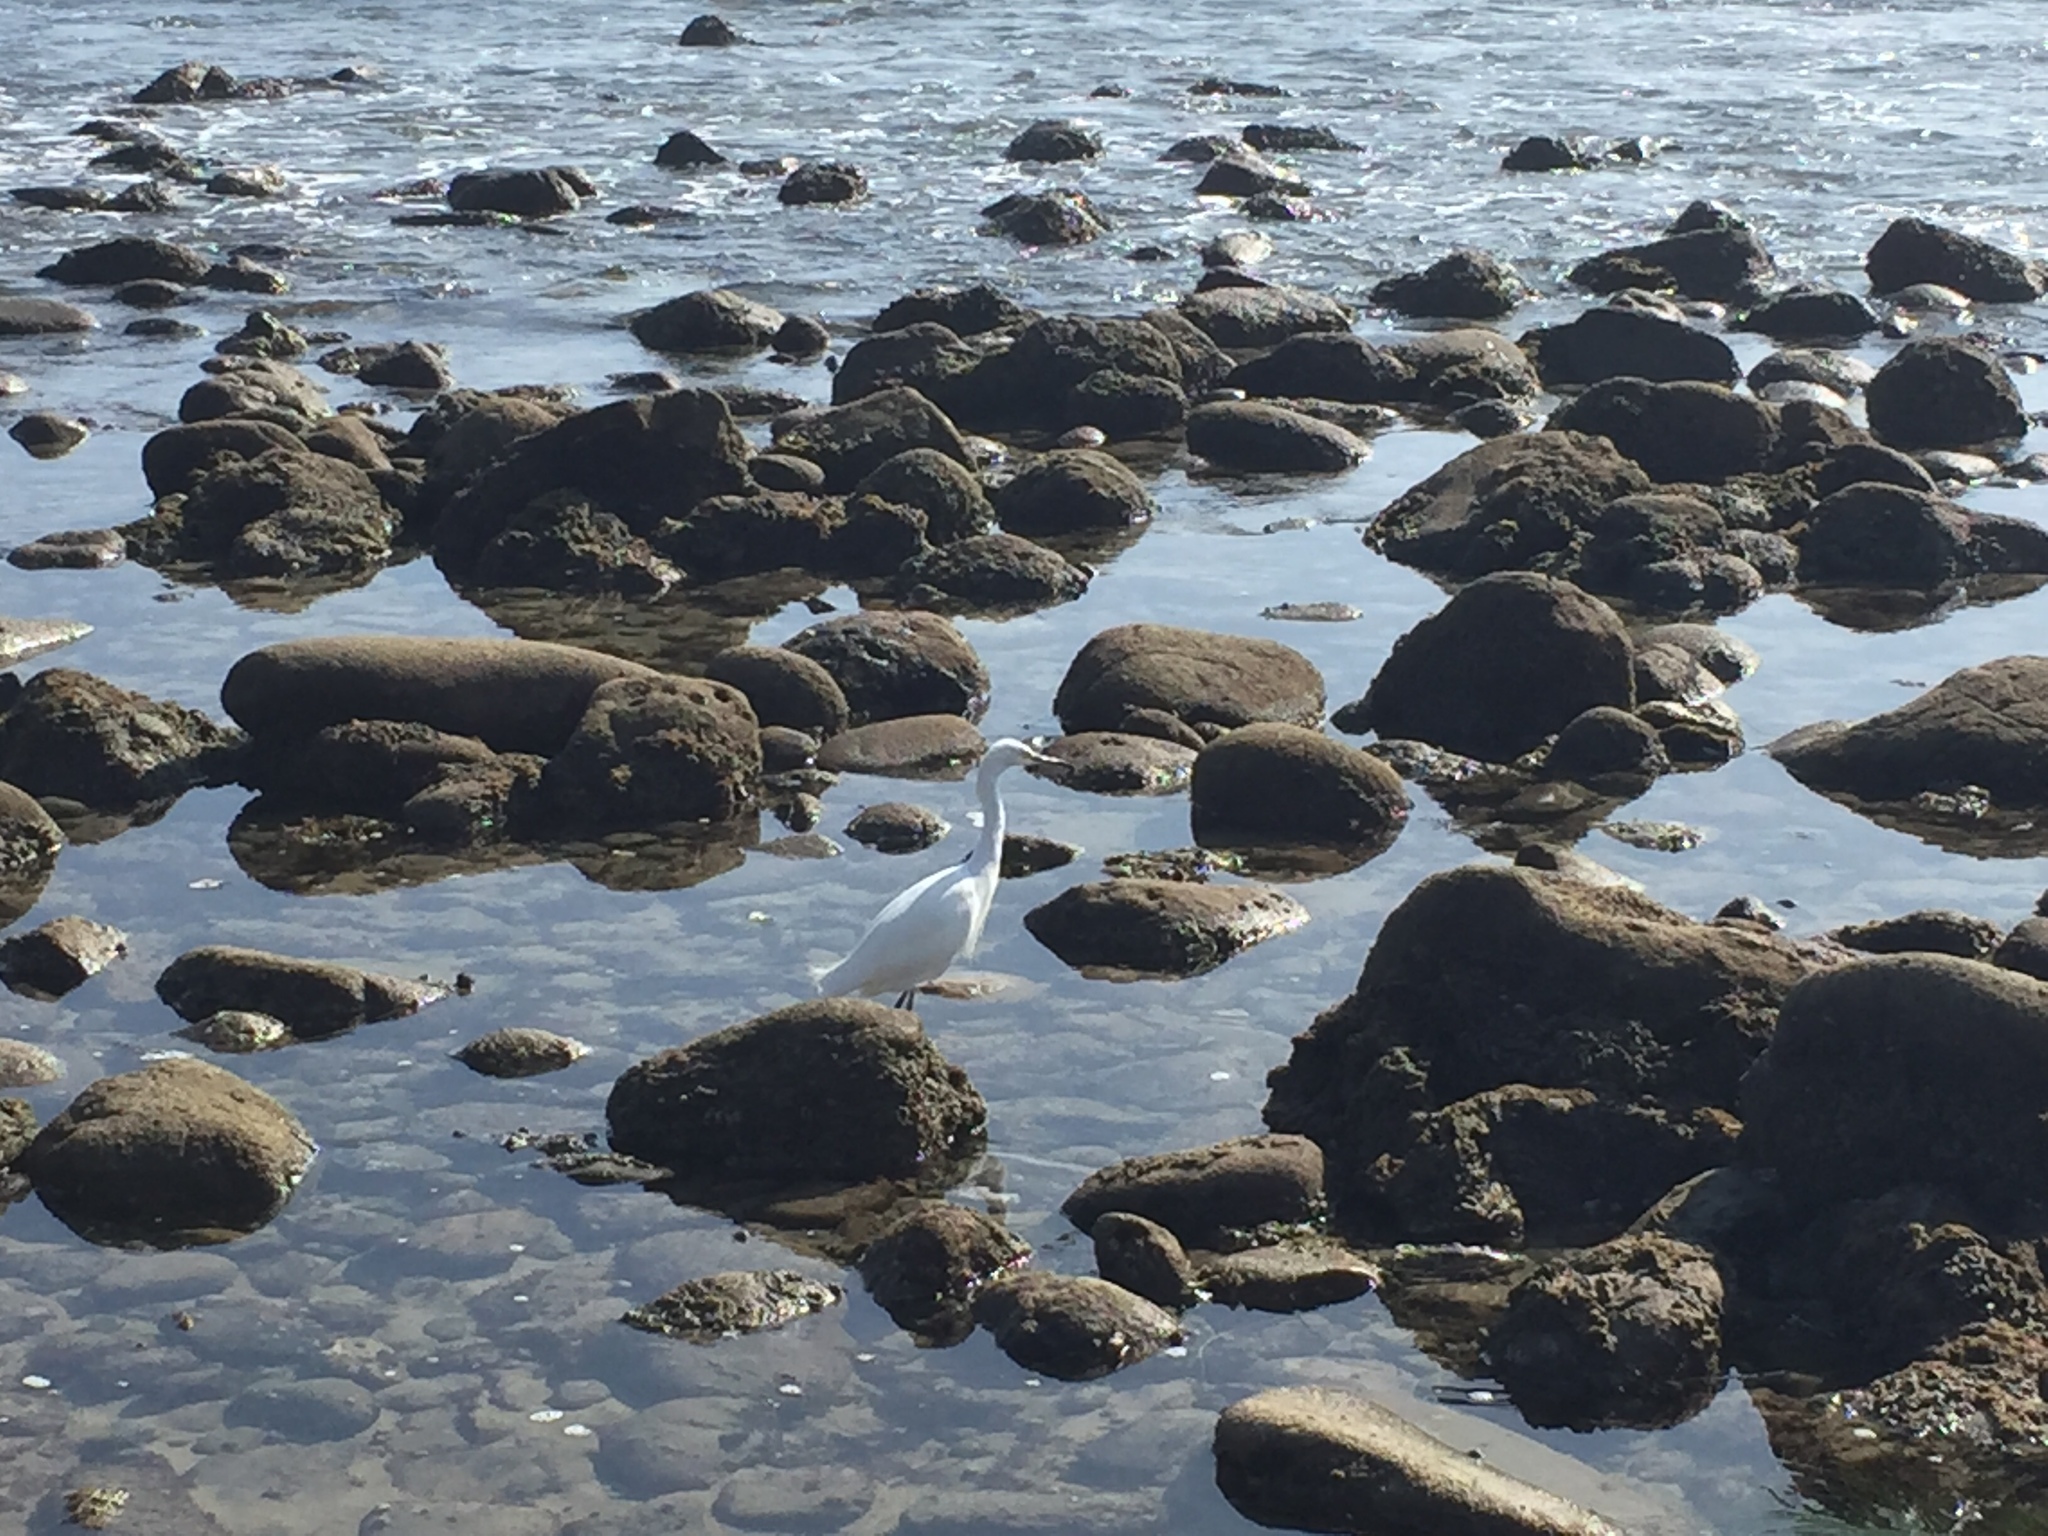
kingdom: Animalia
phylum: Chordata
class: Aves
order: Pelecaniformes
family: Ardeidae
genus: Egretta
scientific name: Egretta thula
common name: Snowy egret
